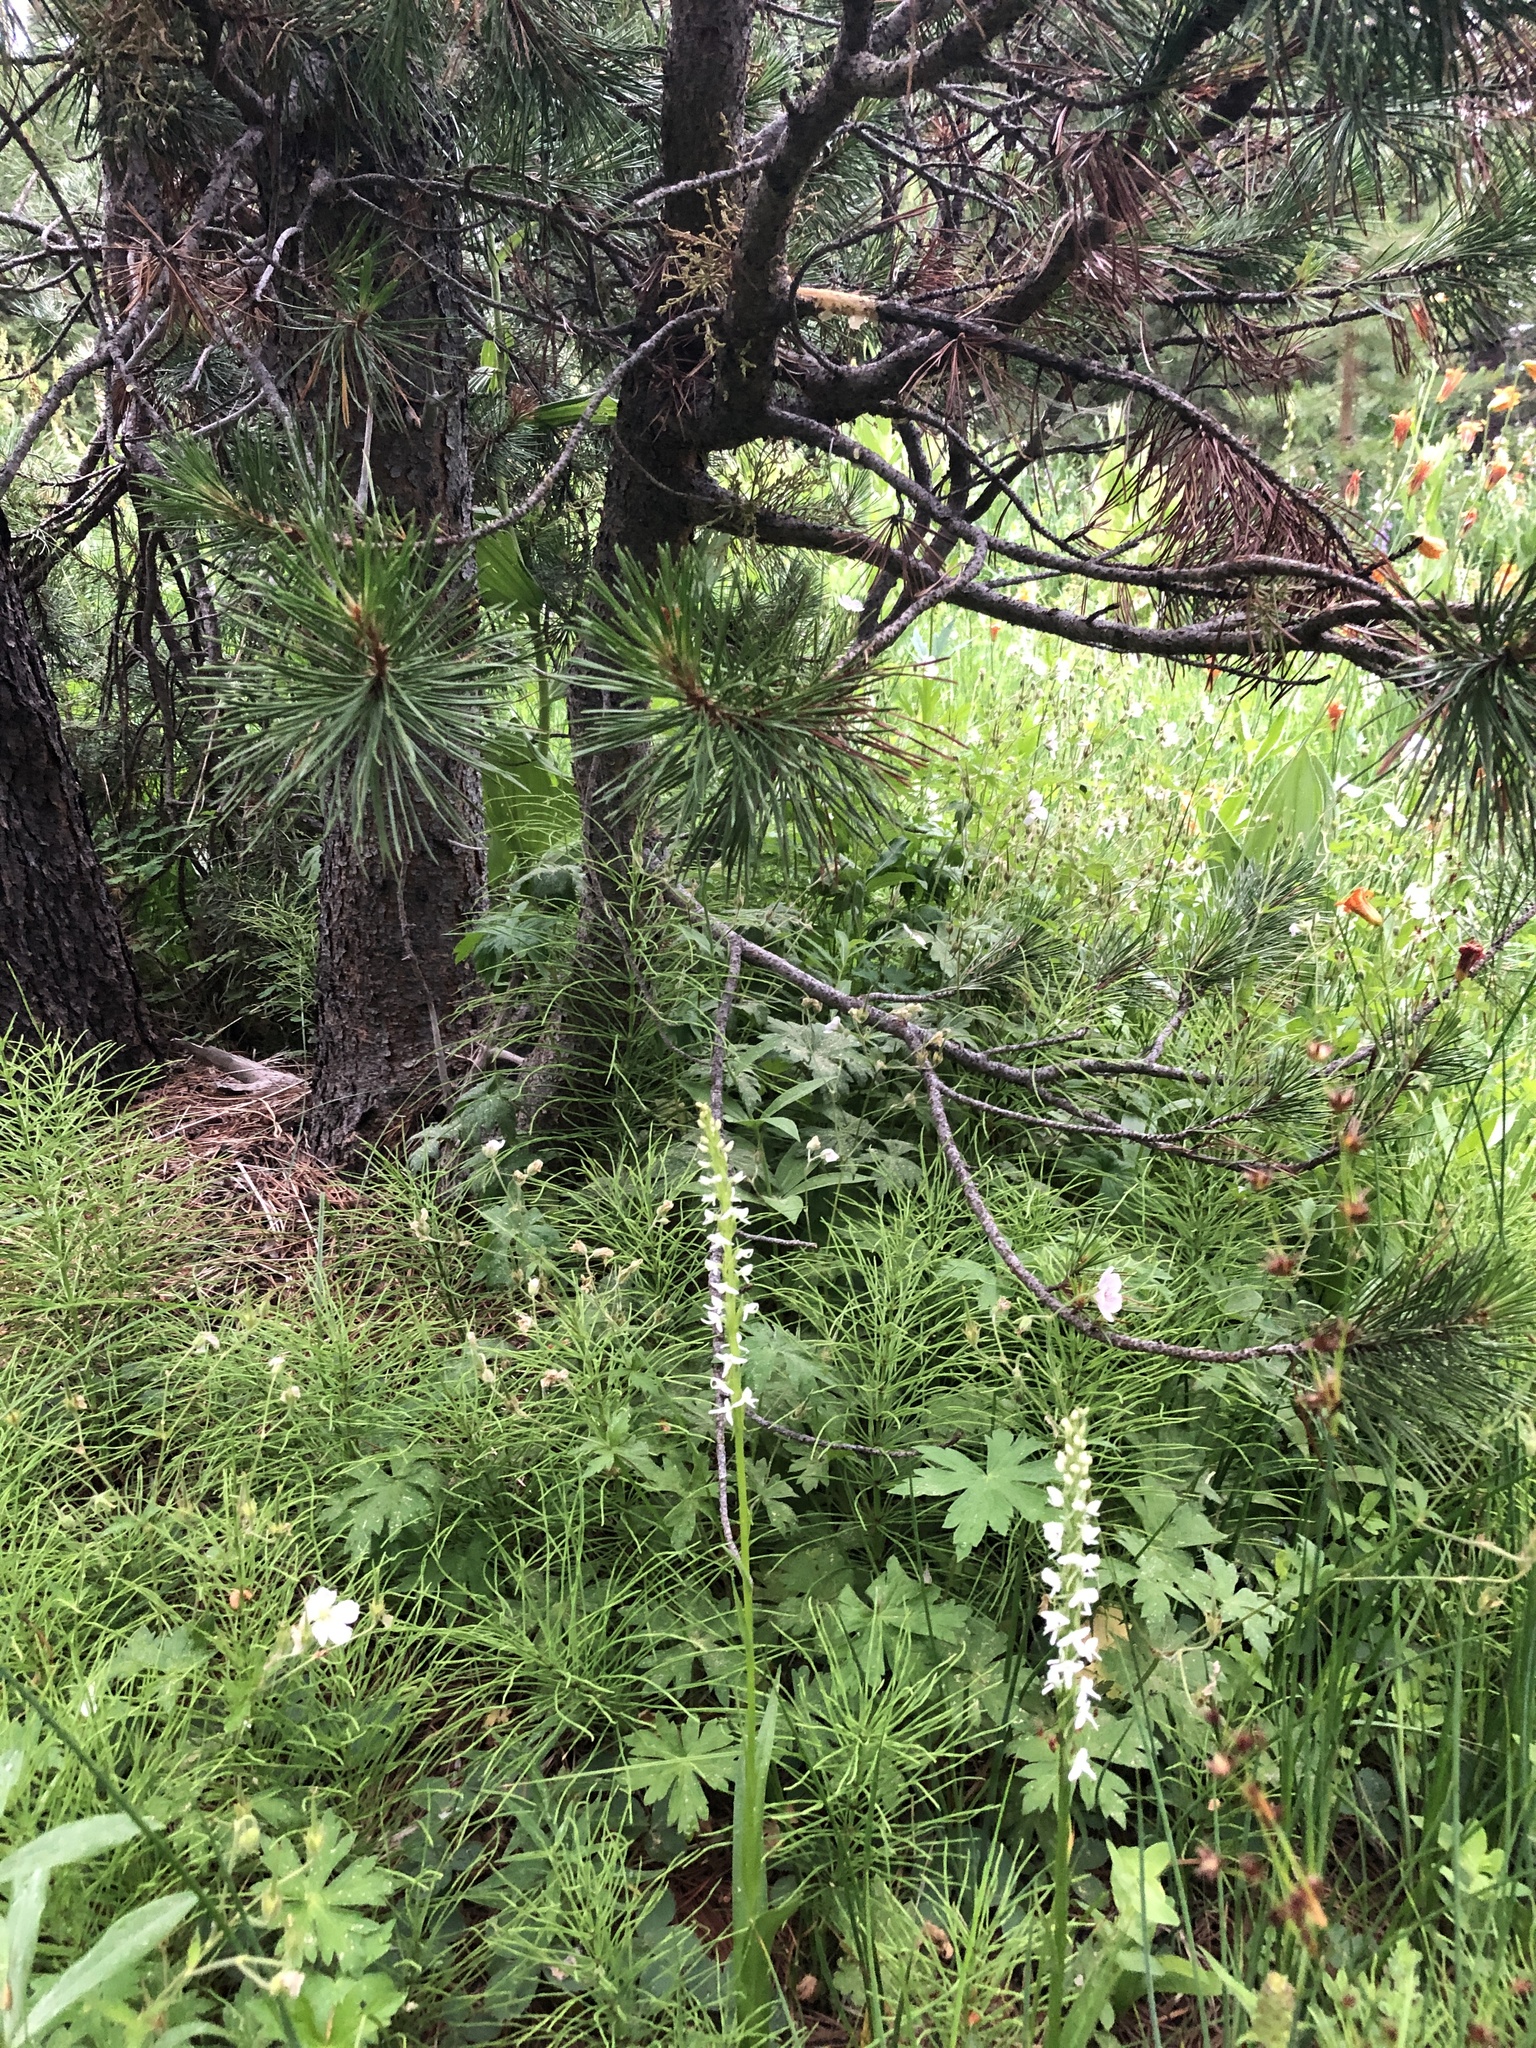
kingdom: Plantae
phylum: Tracheophyta
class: Liliopsida
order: Asparagales
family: Orchidaceae
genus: Platanthera
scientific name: Platanthera dilatata
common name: Bog candles
